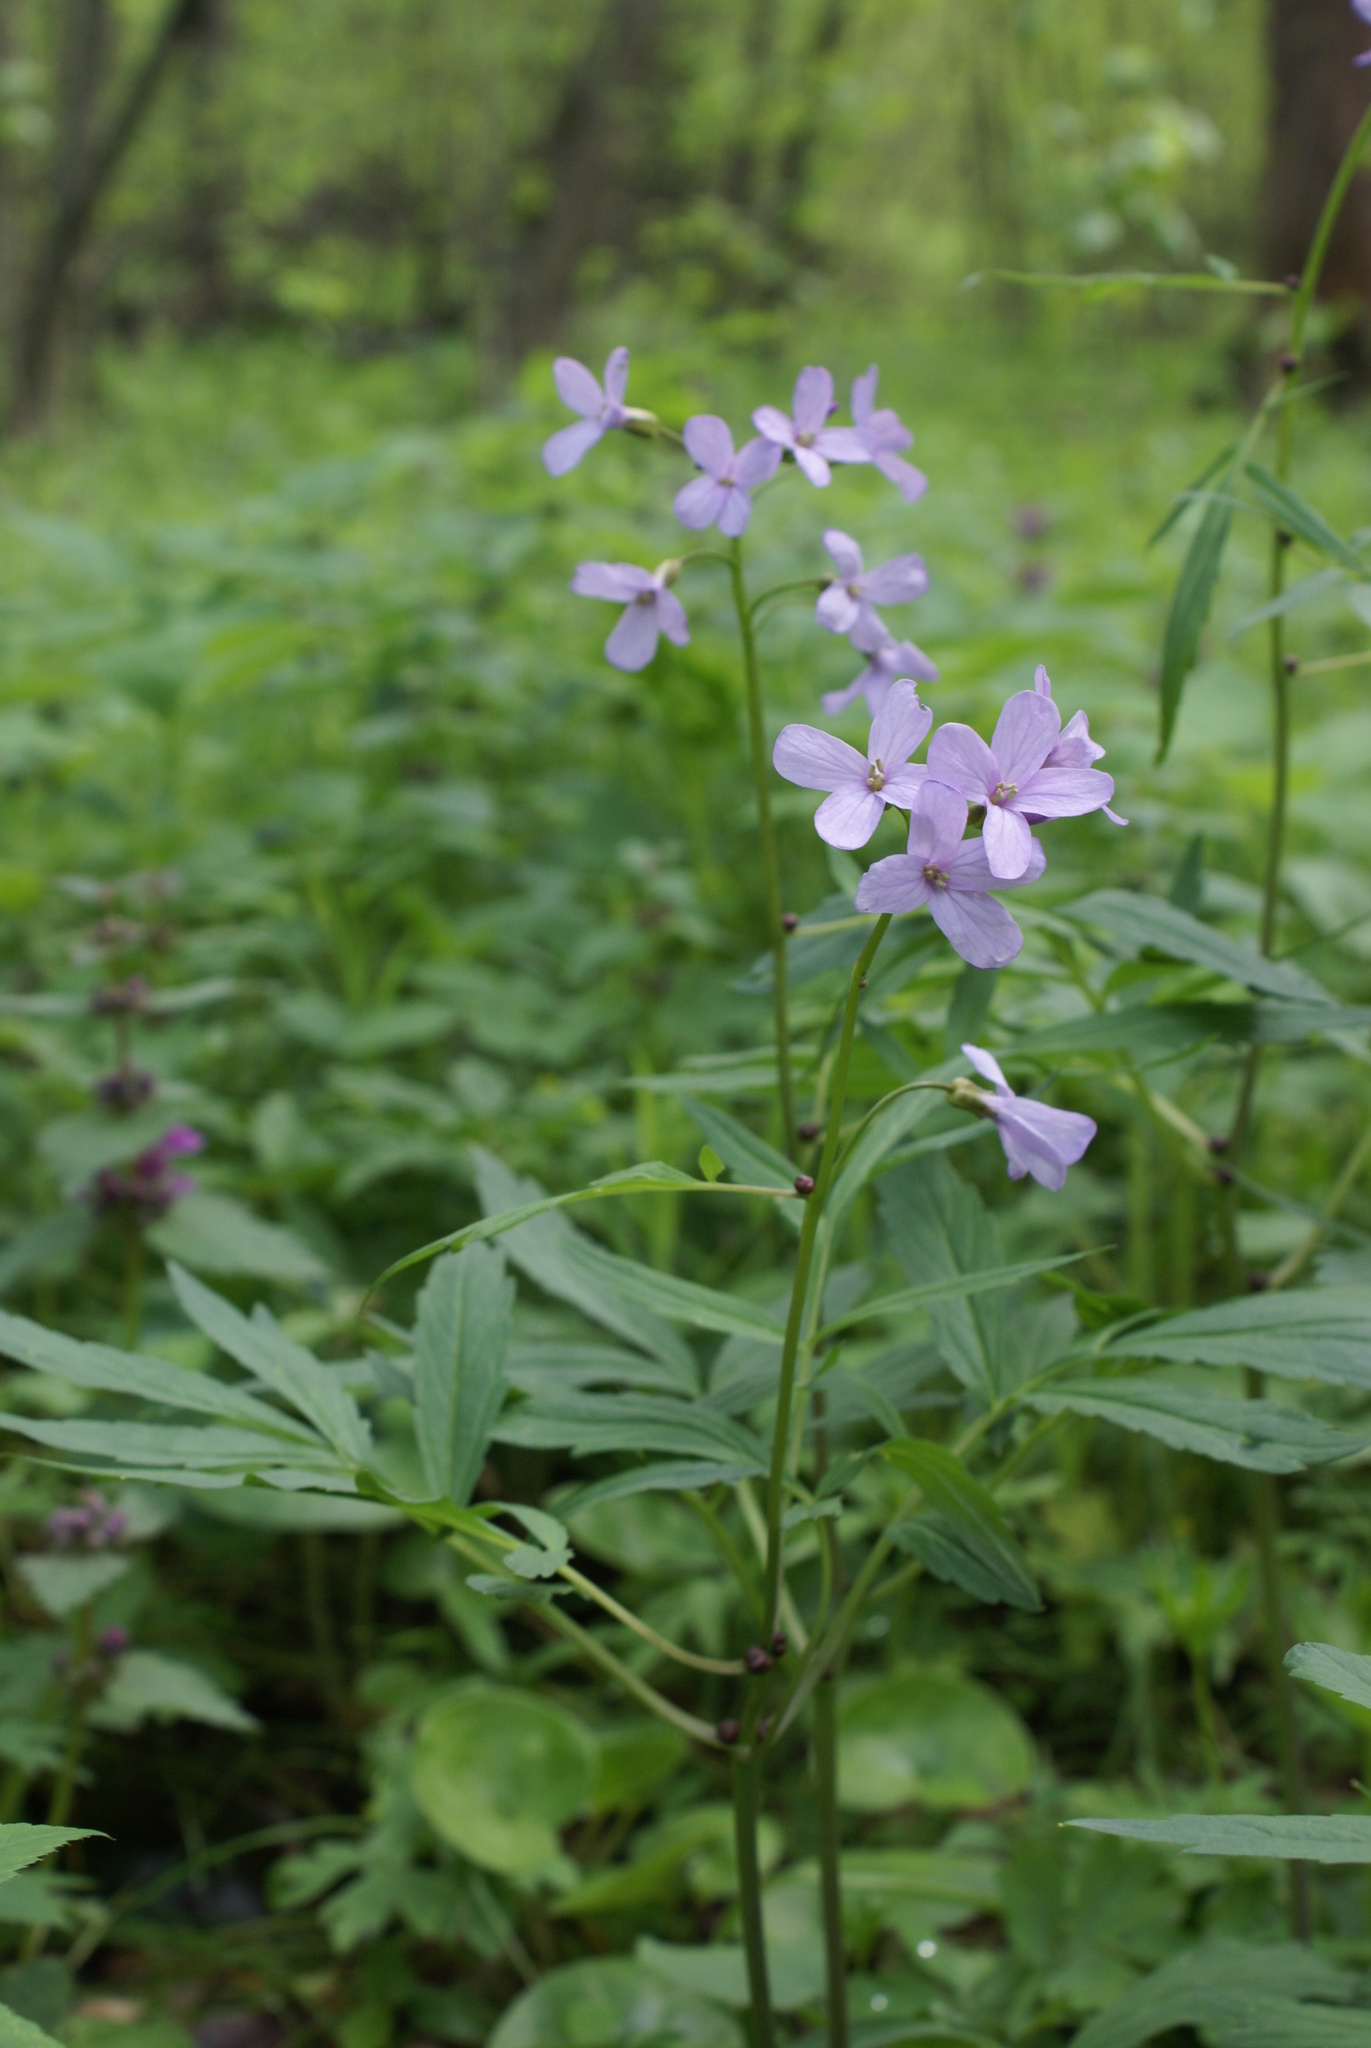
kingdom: Plantae
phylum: Tracheophyta
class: Magnoliopsida
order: Brassicales
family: Brassicaceae
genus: Cardamine
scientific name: Cardamine bulbifera
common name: Coralroot bittercress
